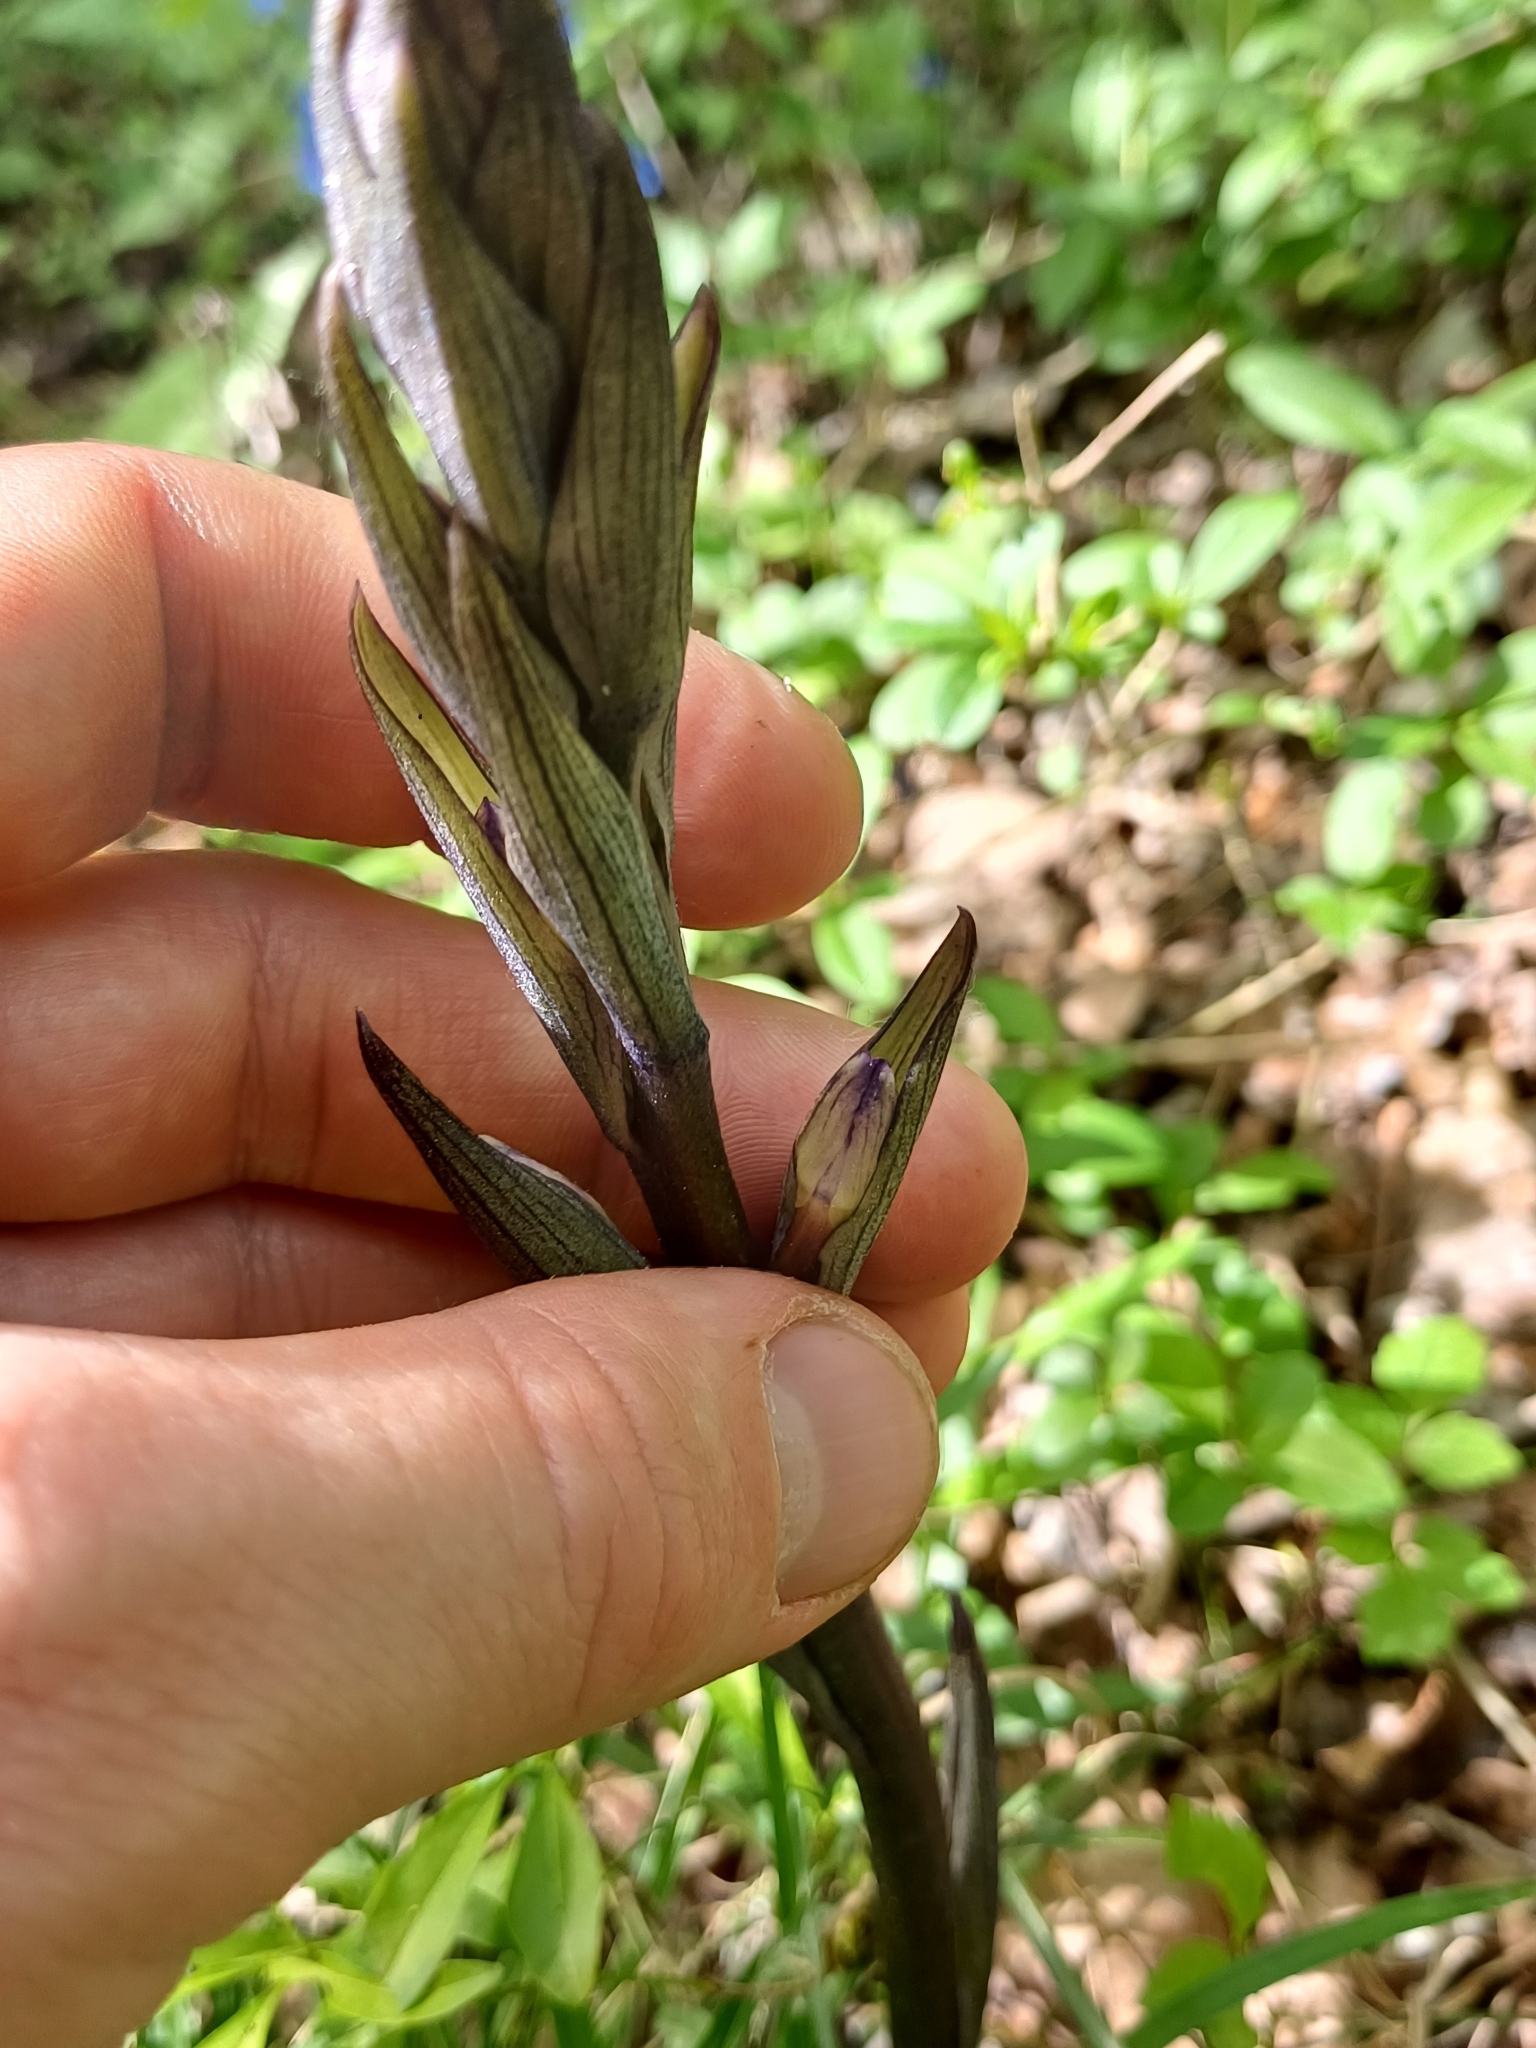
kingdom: Plantae
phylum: Tracheophyta
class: Liliopsida
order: Asparagales
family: Orchidaceae
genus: Limodorum
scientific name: Limodorum abortivum
